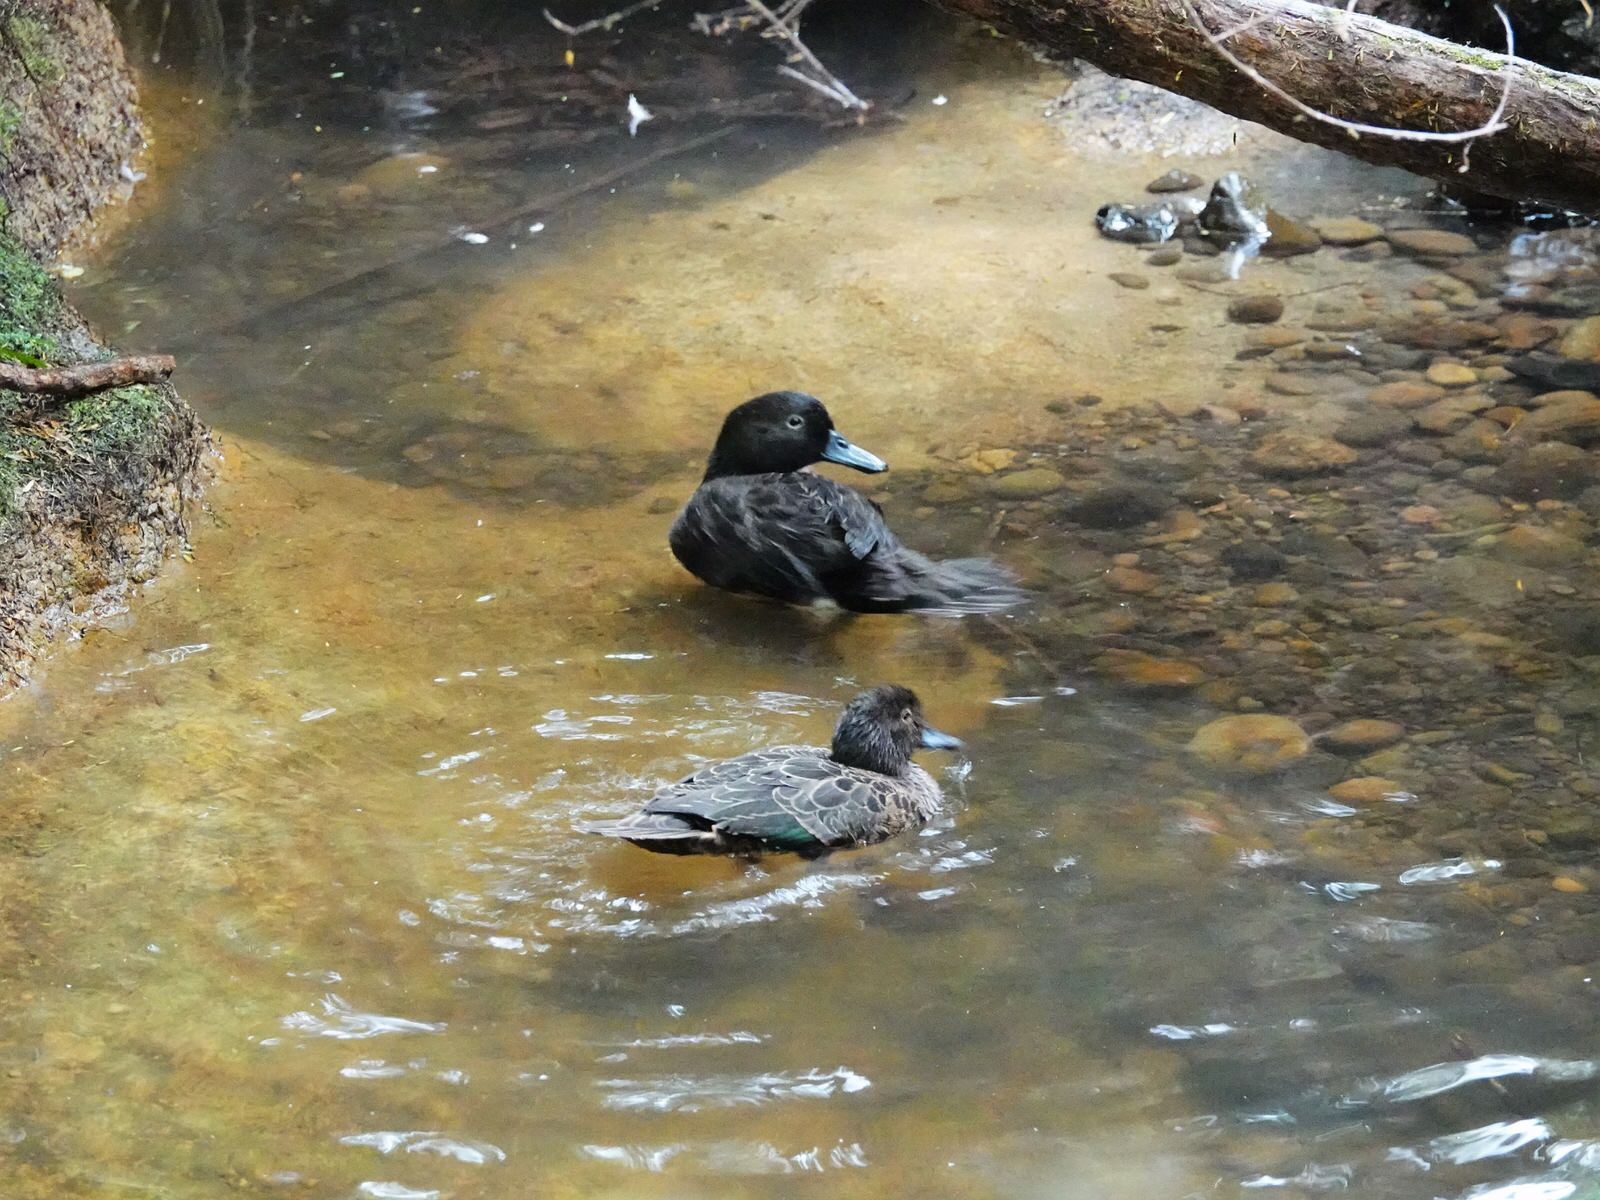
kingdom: Animalia
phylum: Chordata
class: Aves
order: Anseriformes
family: Anatidae
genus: Anas
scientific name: Anas chlorotis
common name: Brown teal
